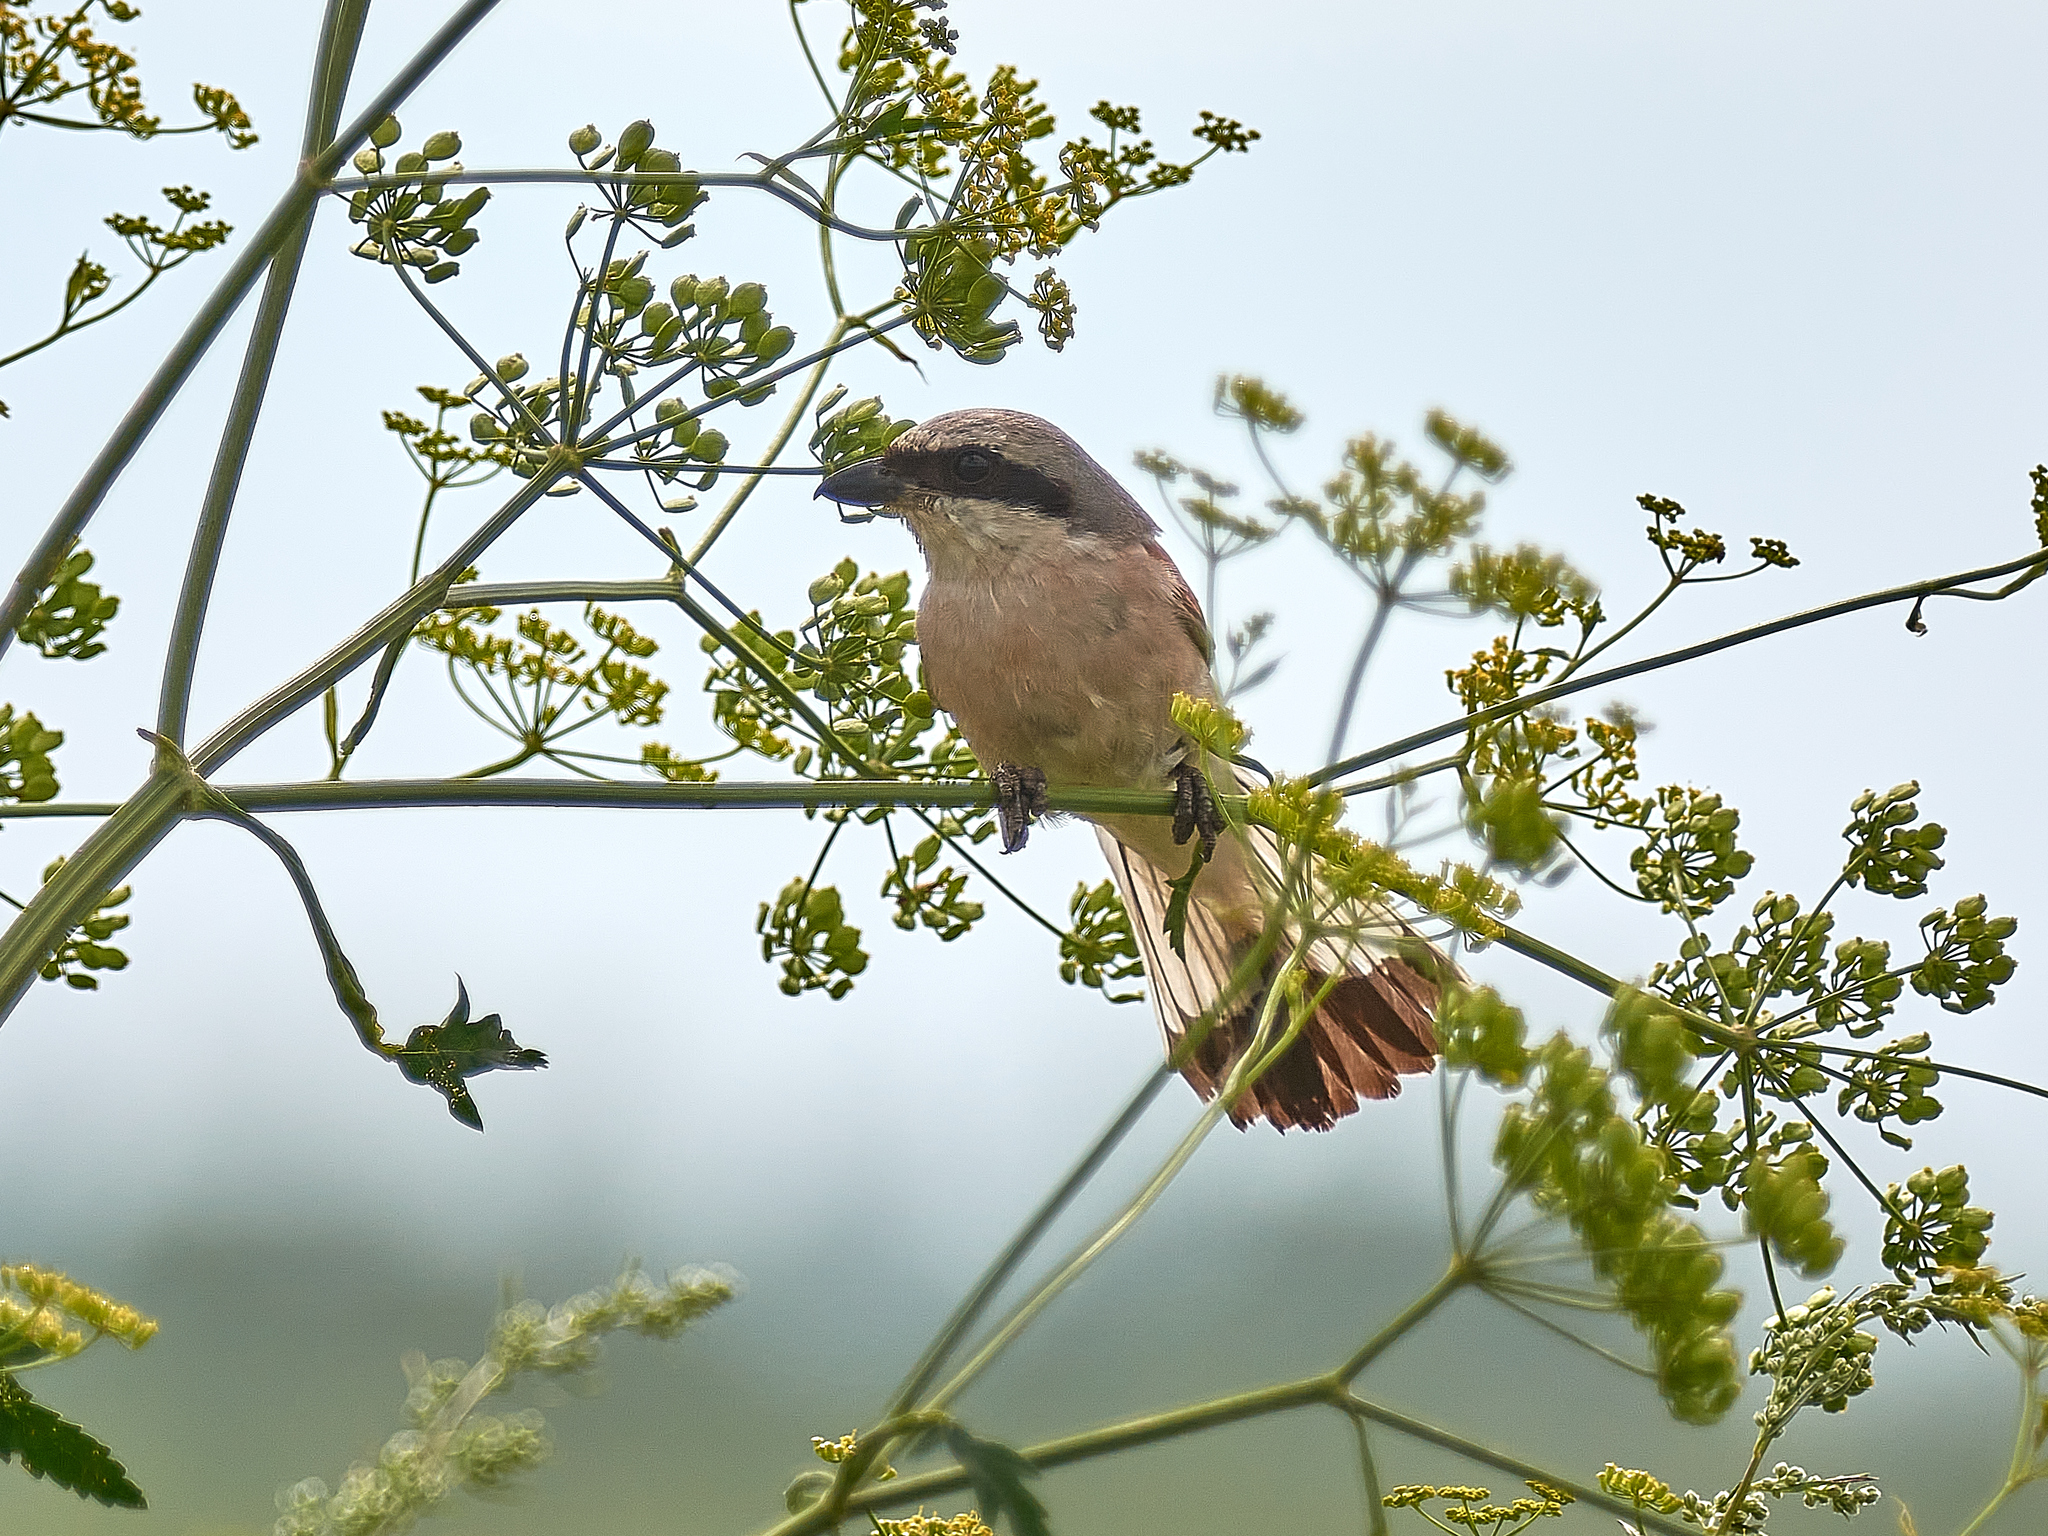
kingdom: Animalia
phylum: Chordata
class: Aves
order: Passeriformes
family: Laniidae
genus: Lanius
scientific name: Lanius collurio
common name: Red-backed shrike
